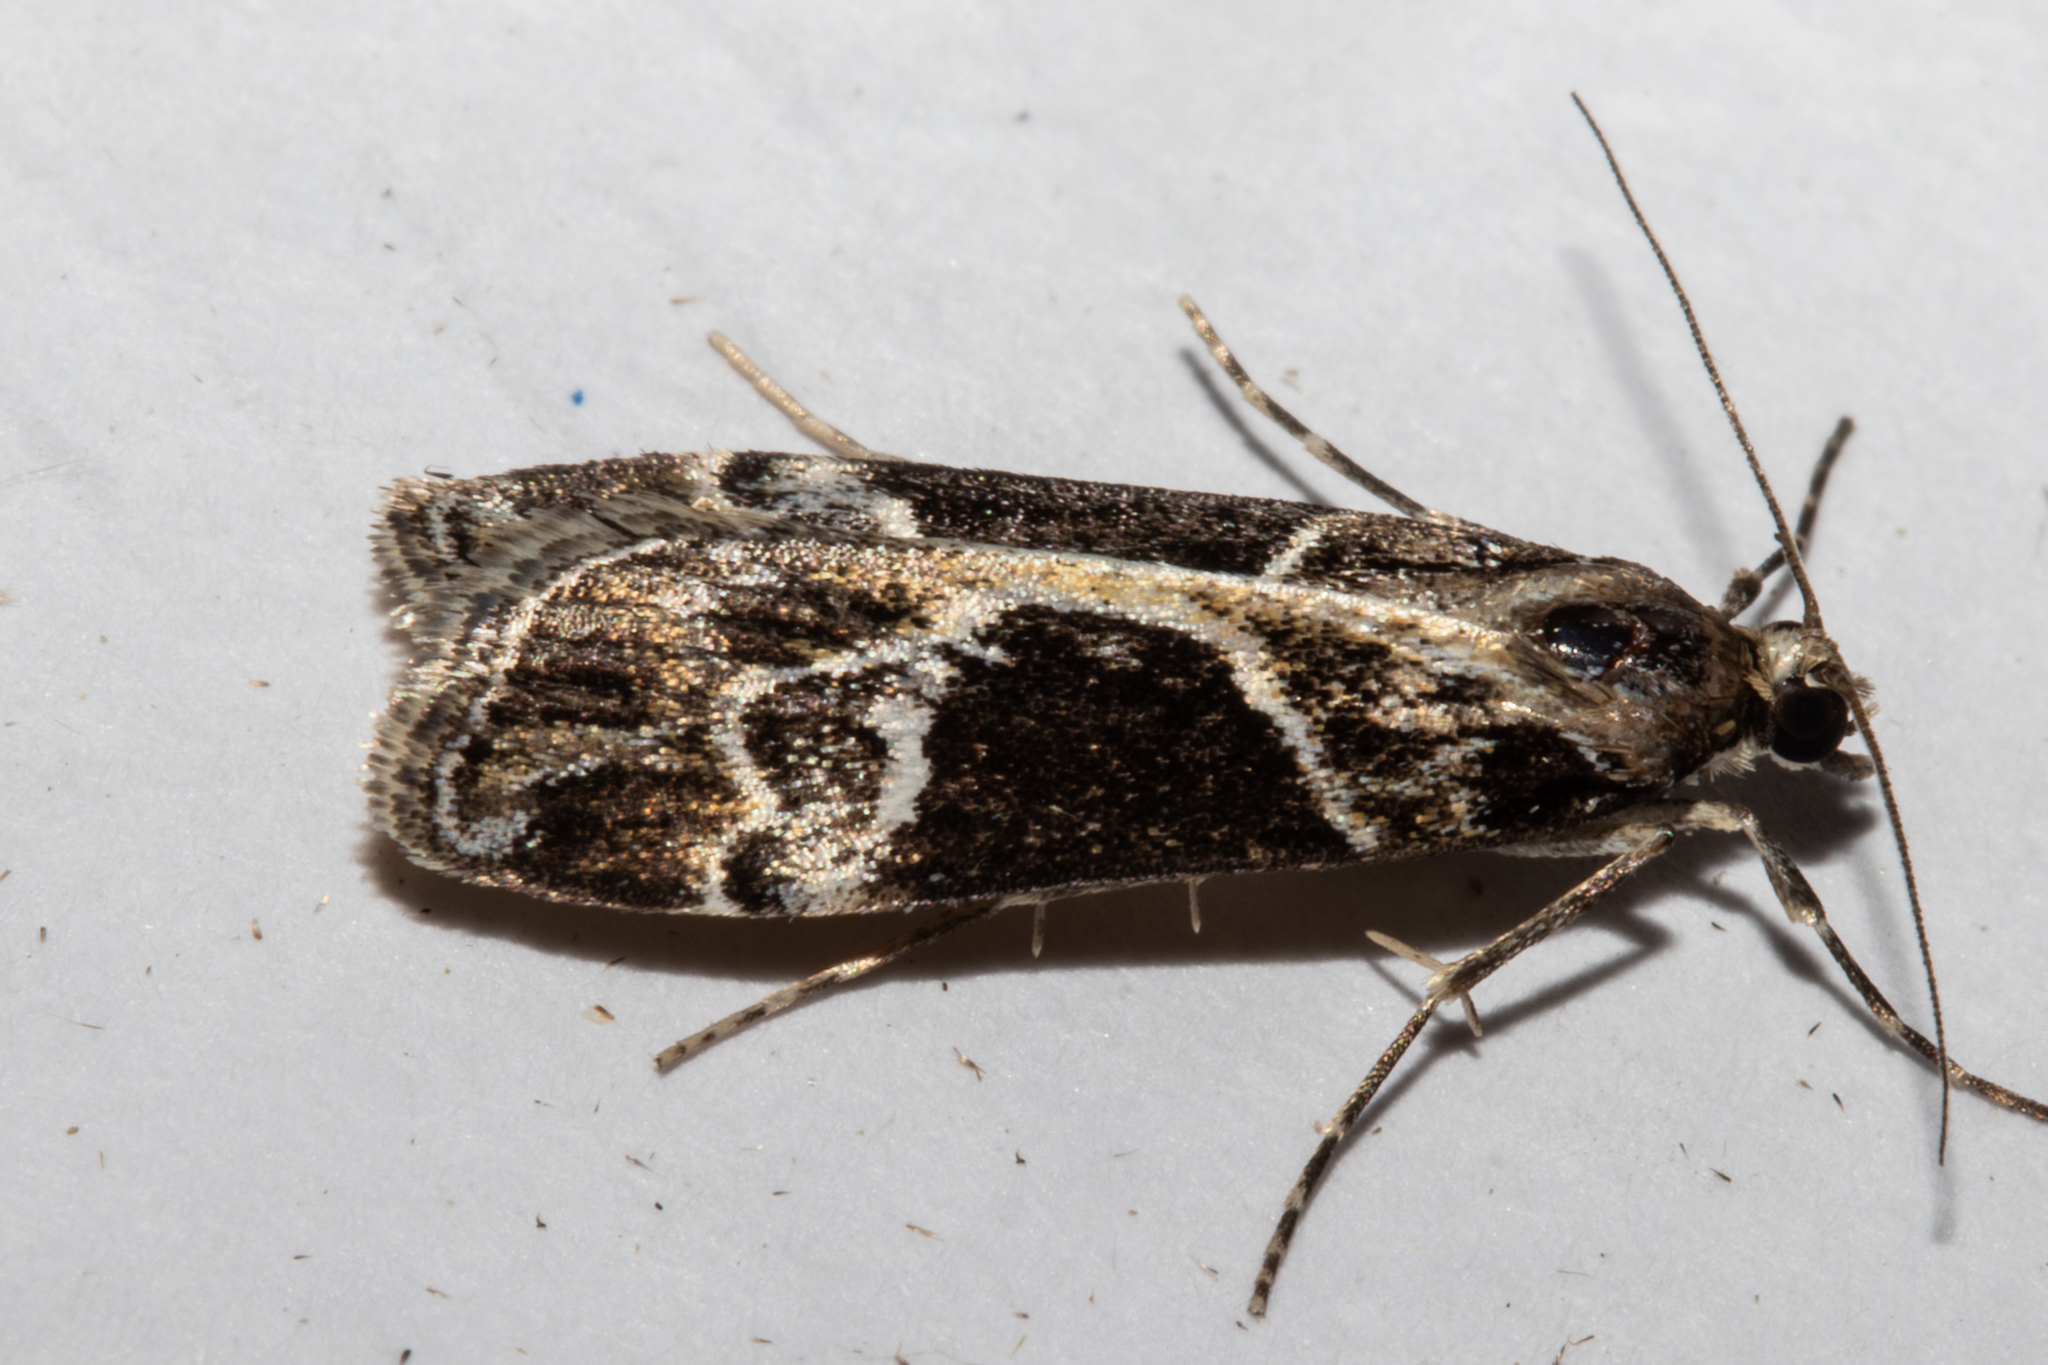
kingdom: Animalia
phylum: Arthropoda
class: Insecta
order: Lepidoptera
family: Crambidae
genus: Eudonia
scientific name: Eudonia melanaegis
